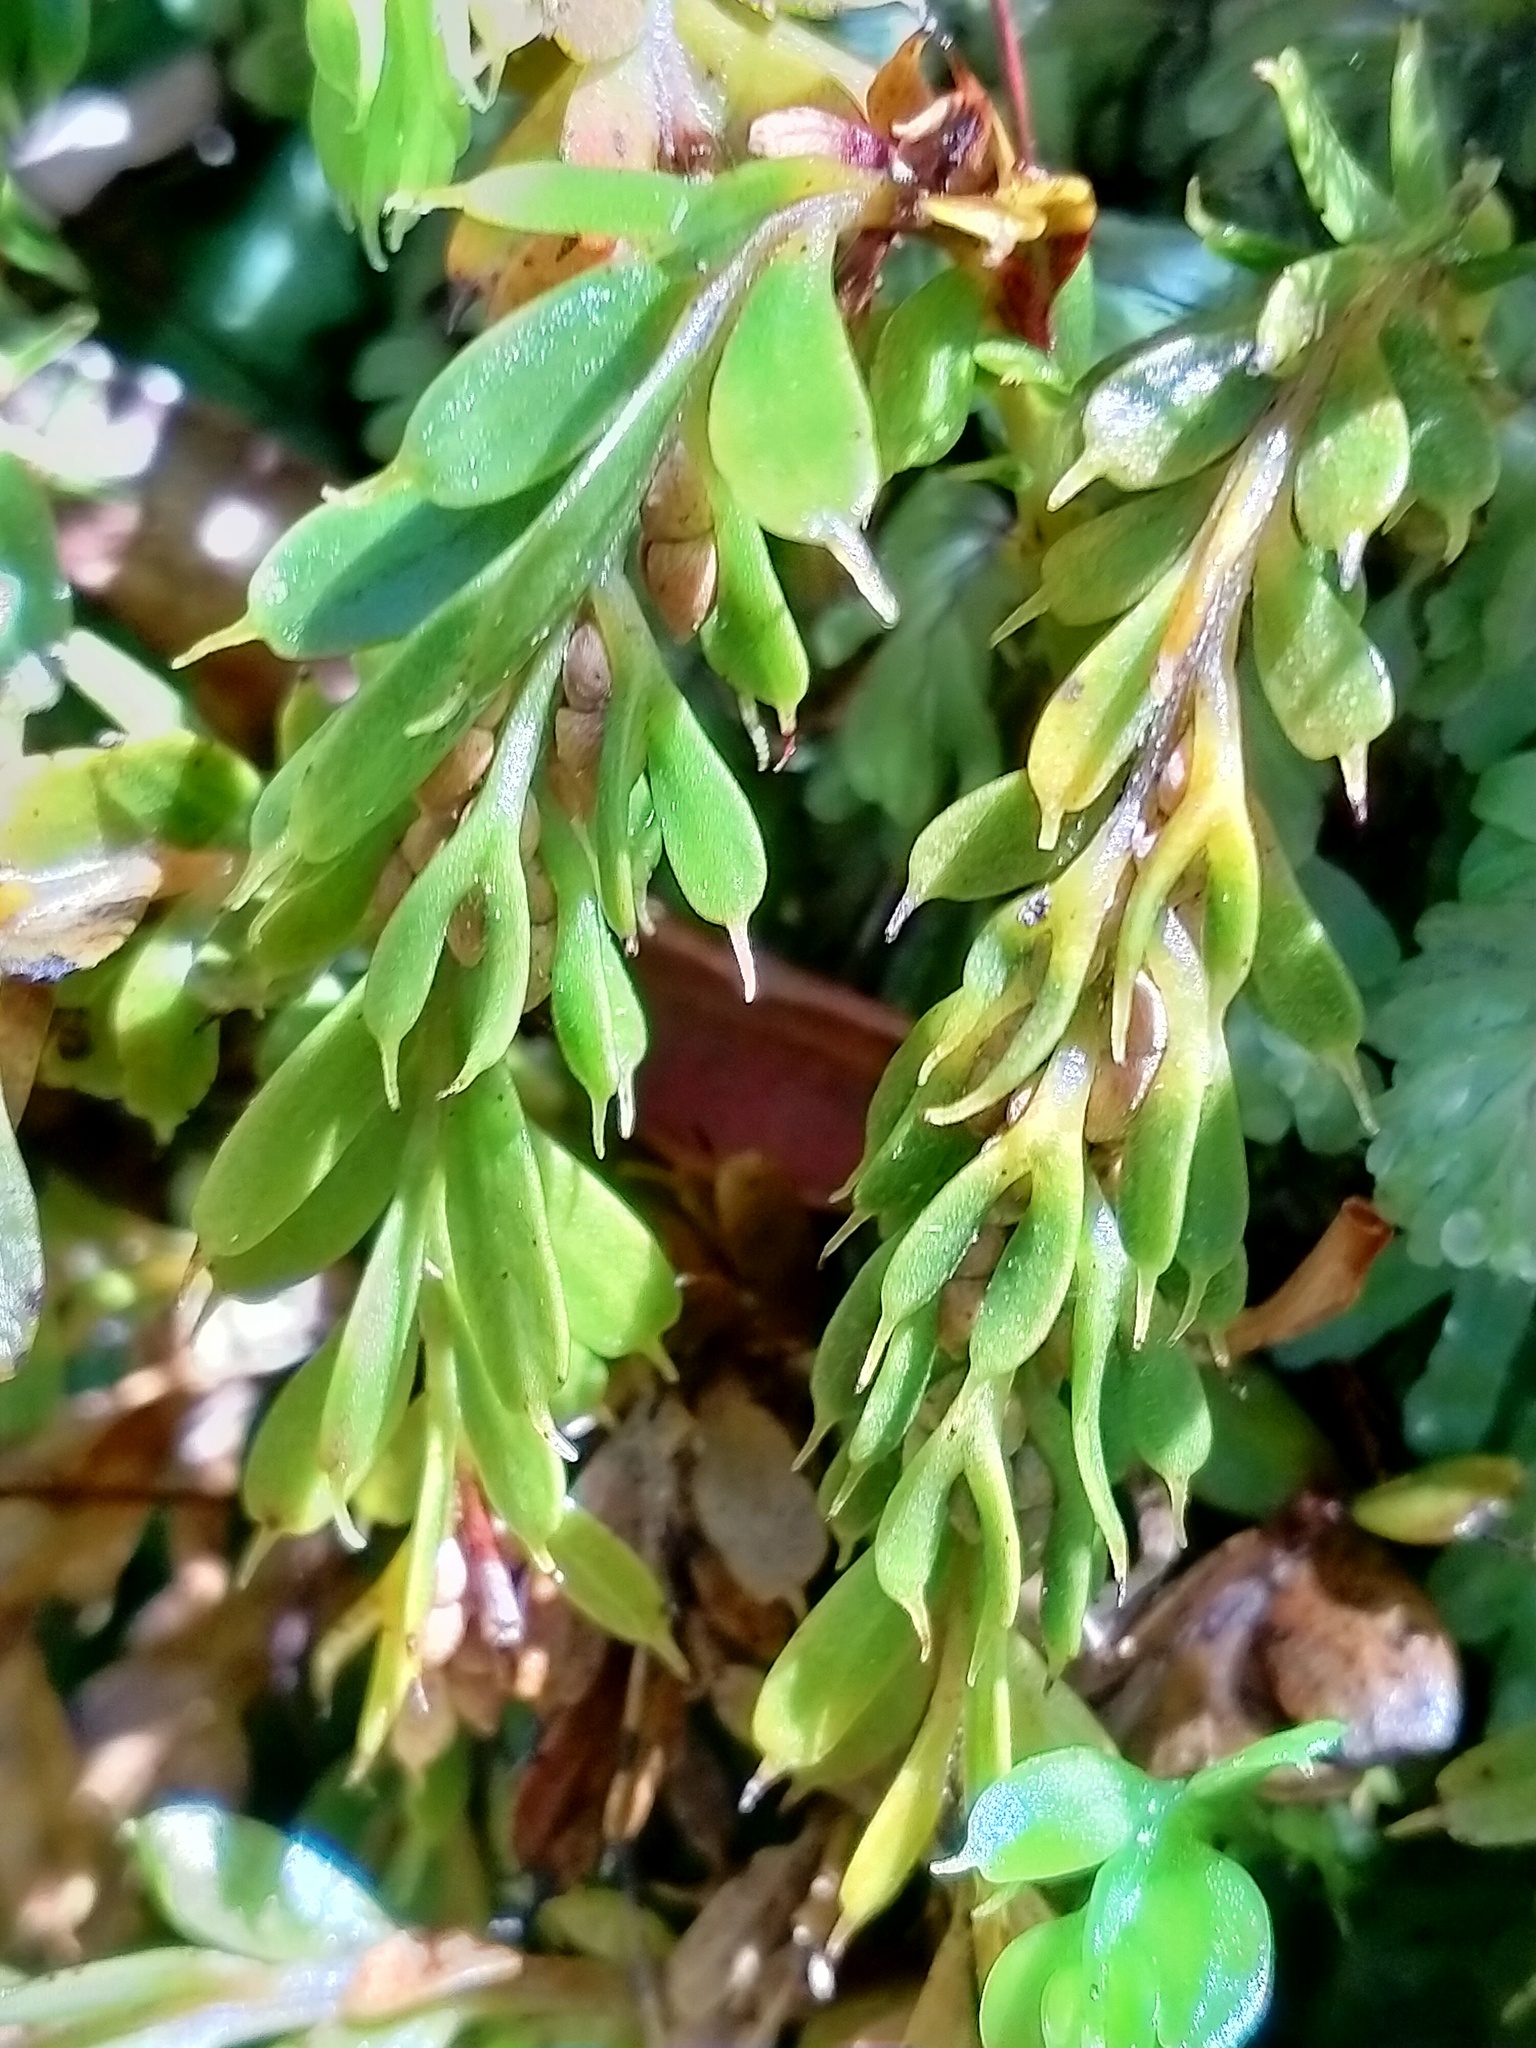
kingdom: Plantae
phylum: Tracheophyta
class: Polypodiopsida
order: Psilotales
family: Psilotaceae
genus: Tmesipteris
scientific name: Tmesipteris tannensis
